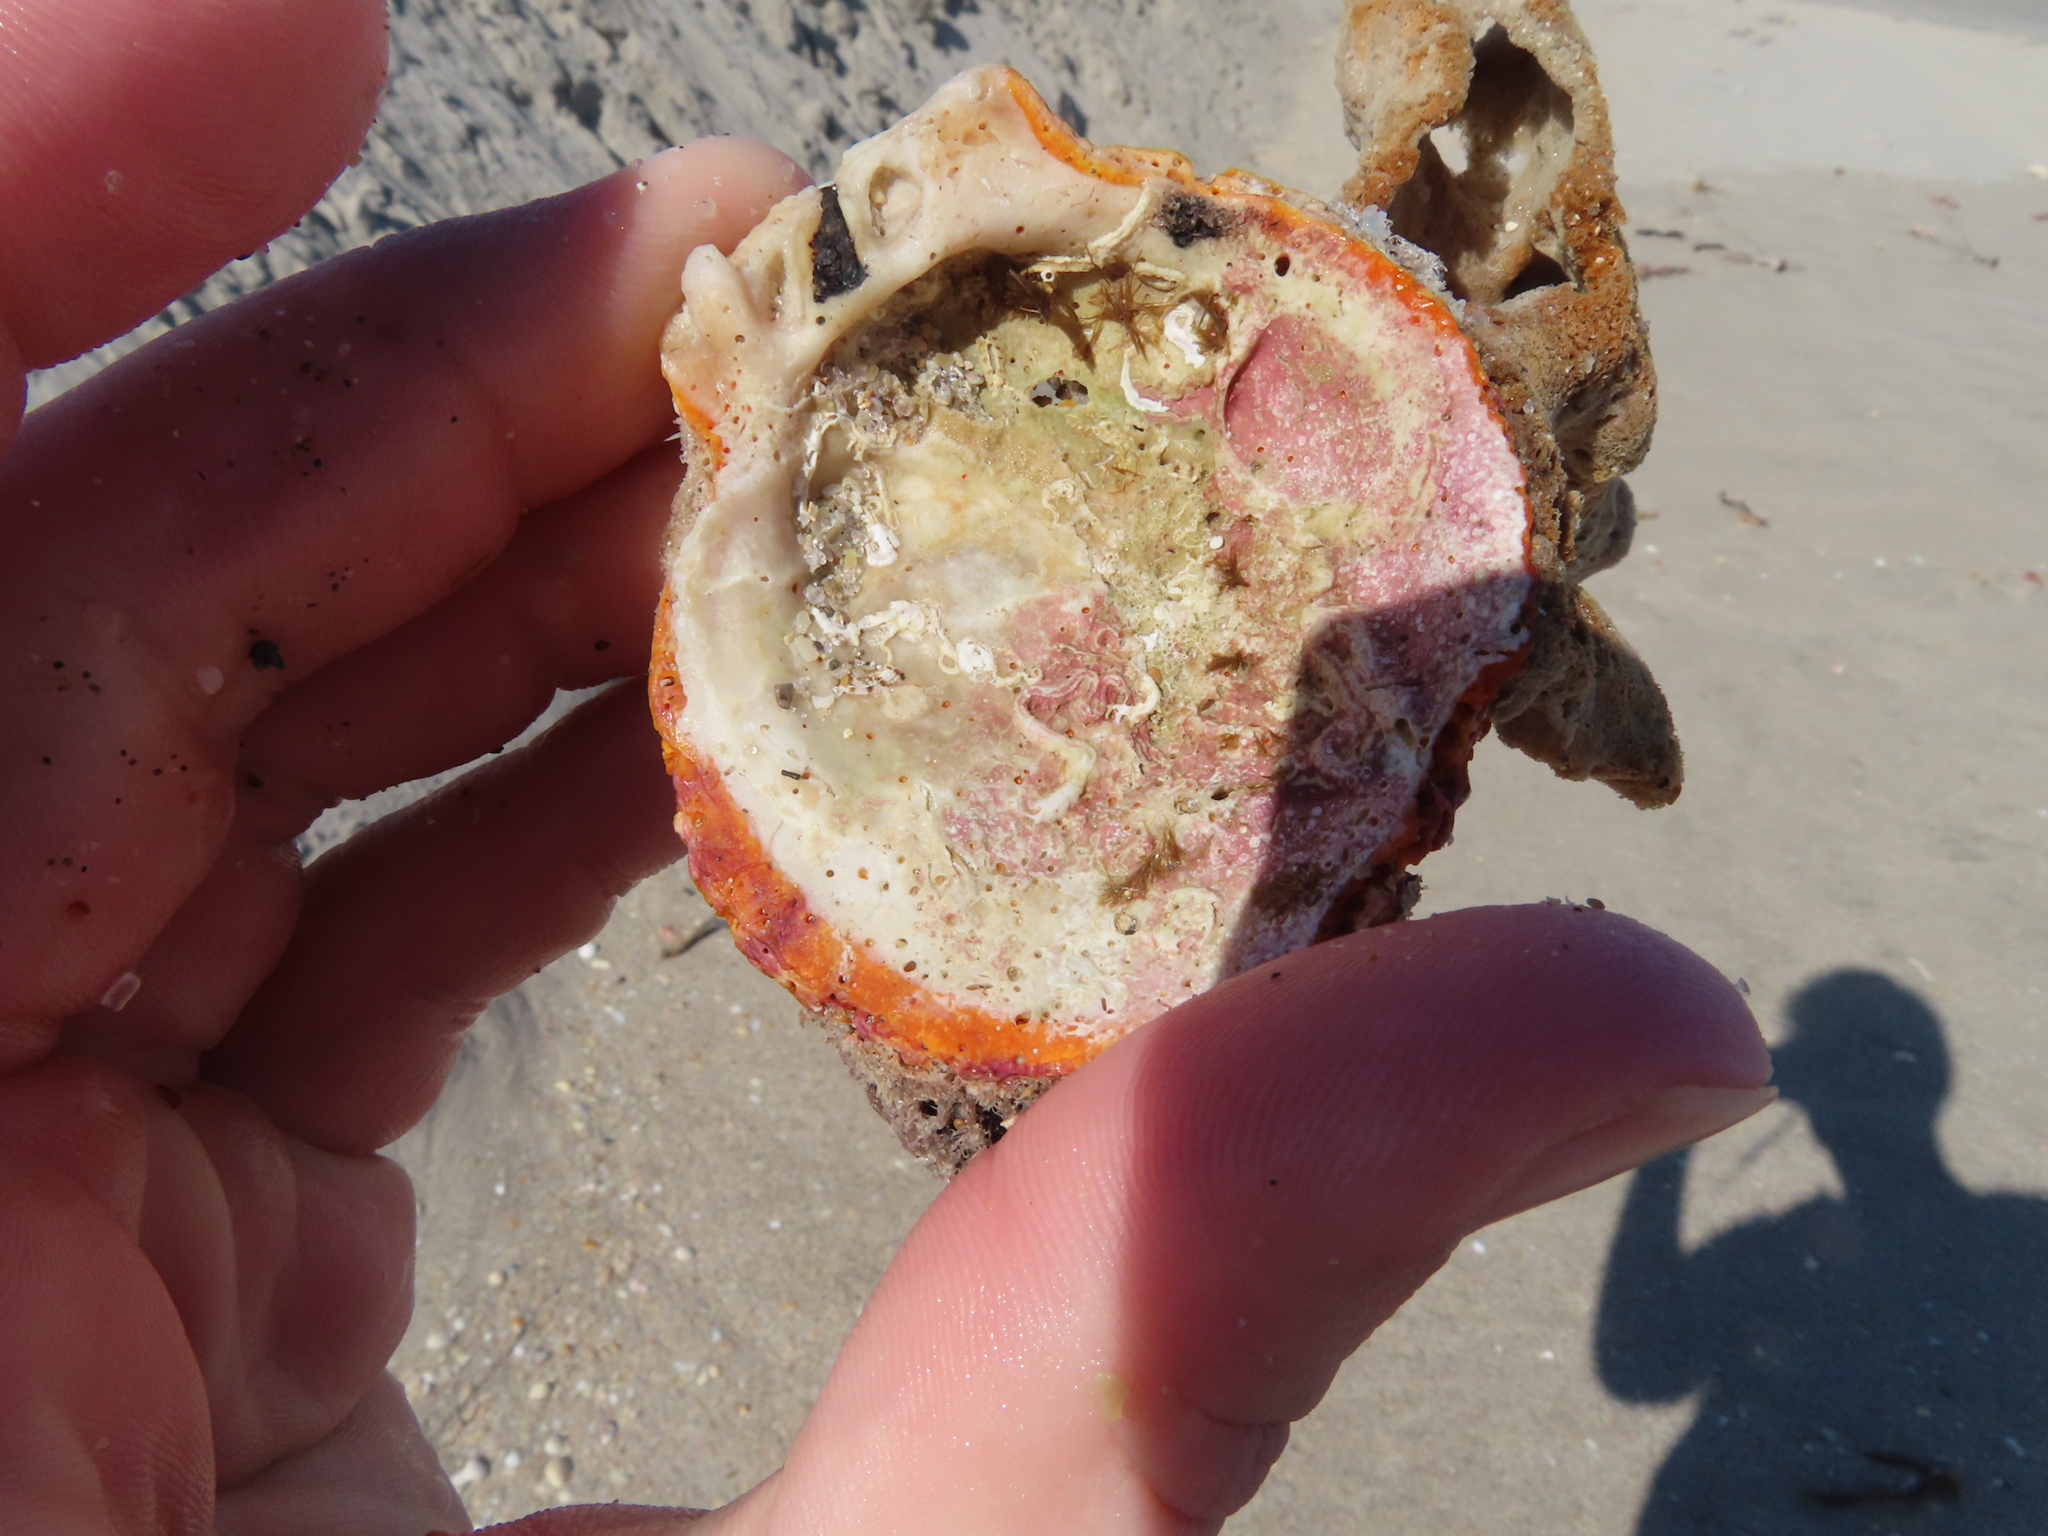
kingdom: Animalia
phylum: Mollusca
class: Bivalvia
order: Pectinida
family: Spondylidae
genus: Spondylus
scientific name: Spondylus tenuis
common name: Digitate thorny oyster
